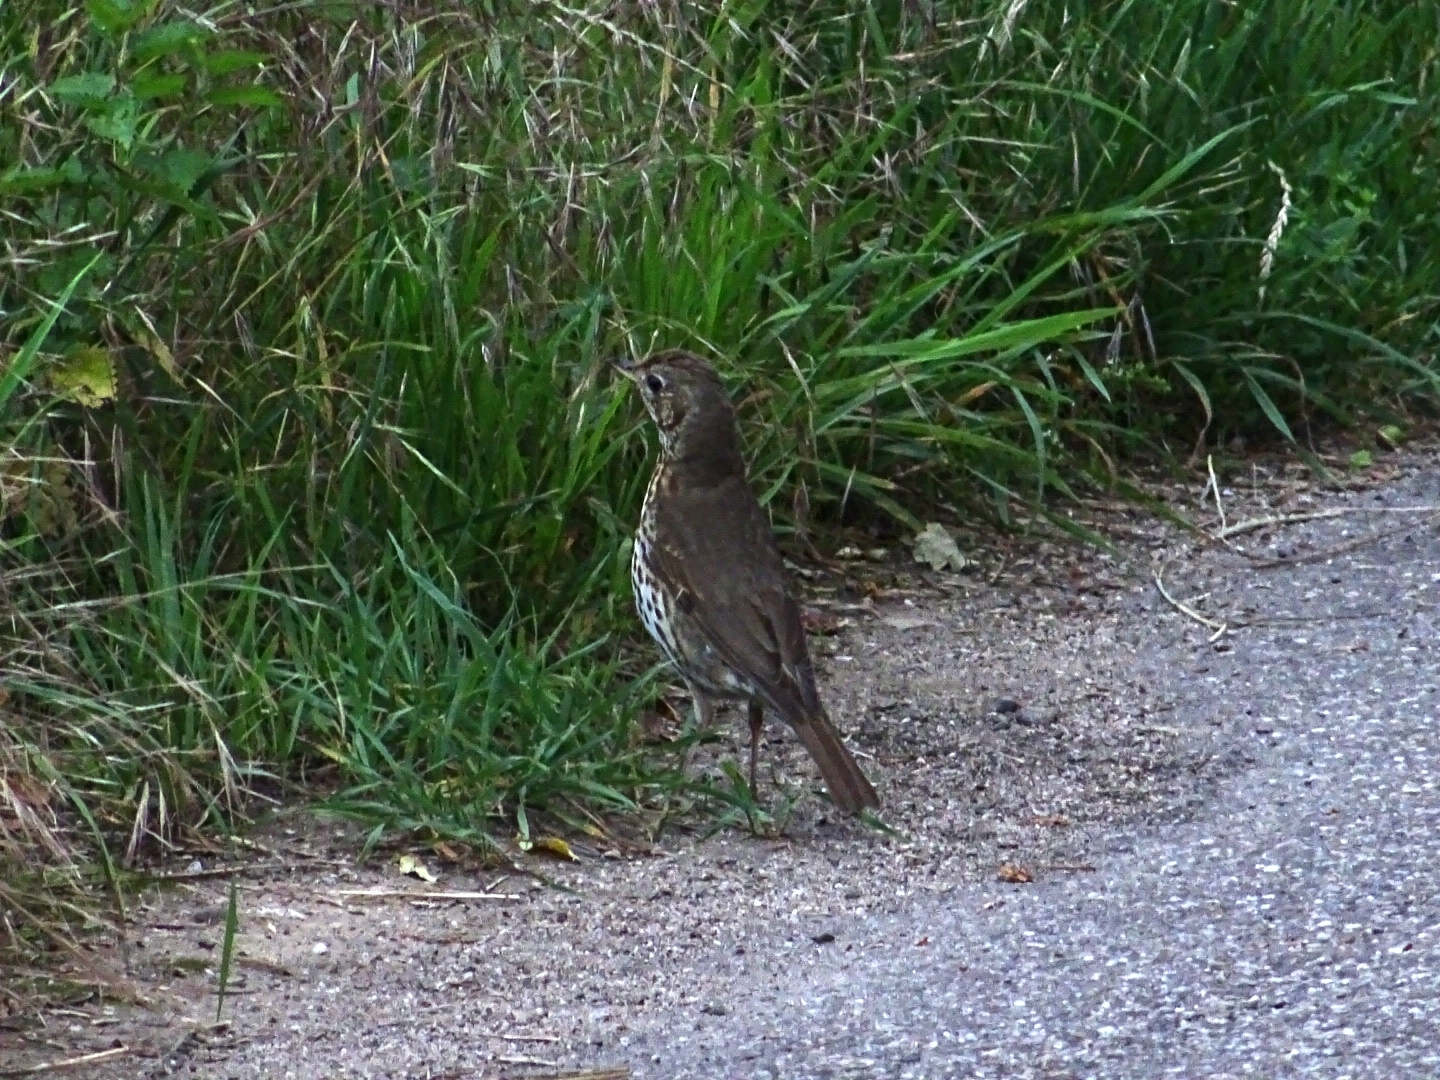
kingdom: Animalia
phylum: Chordata
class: Aves
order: Passeriformes
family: Turdidae
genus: Turdus
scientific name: Turdus philomelos
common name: Song thrush
